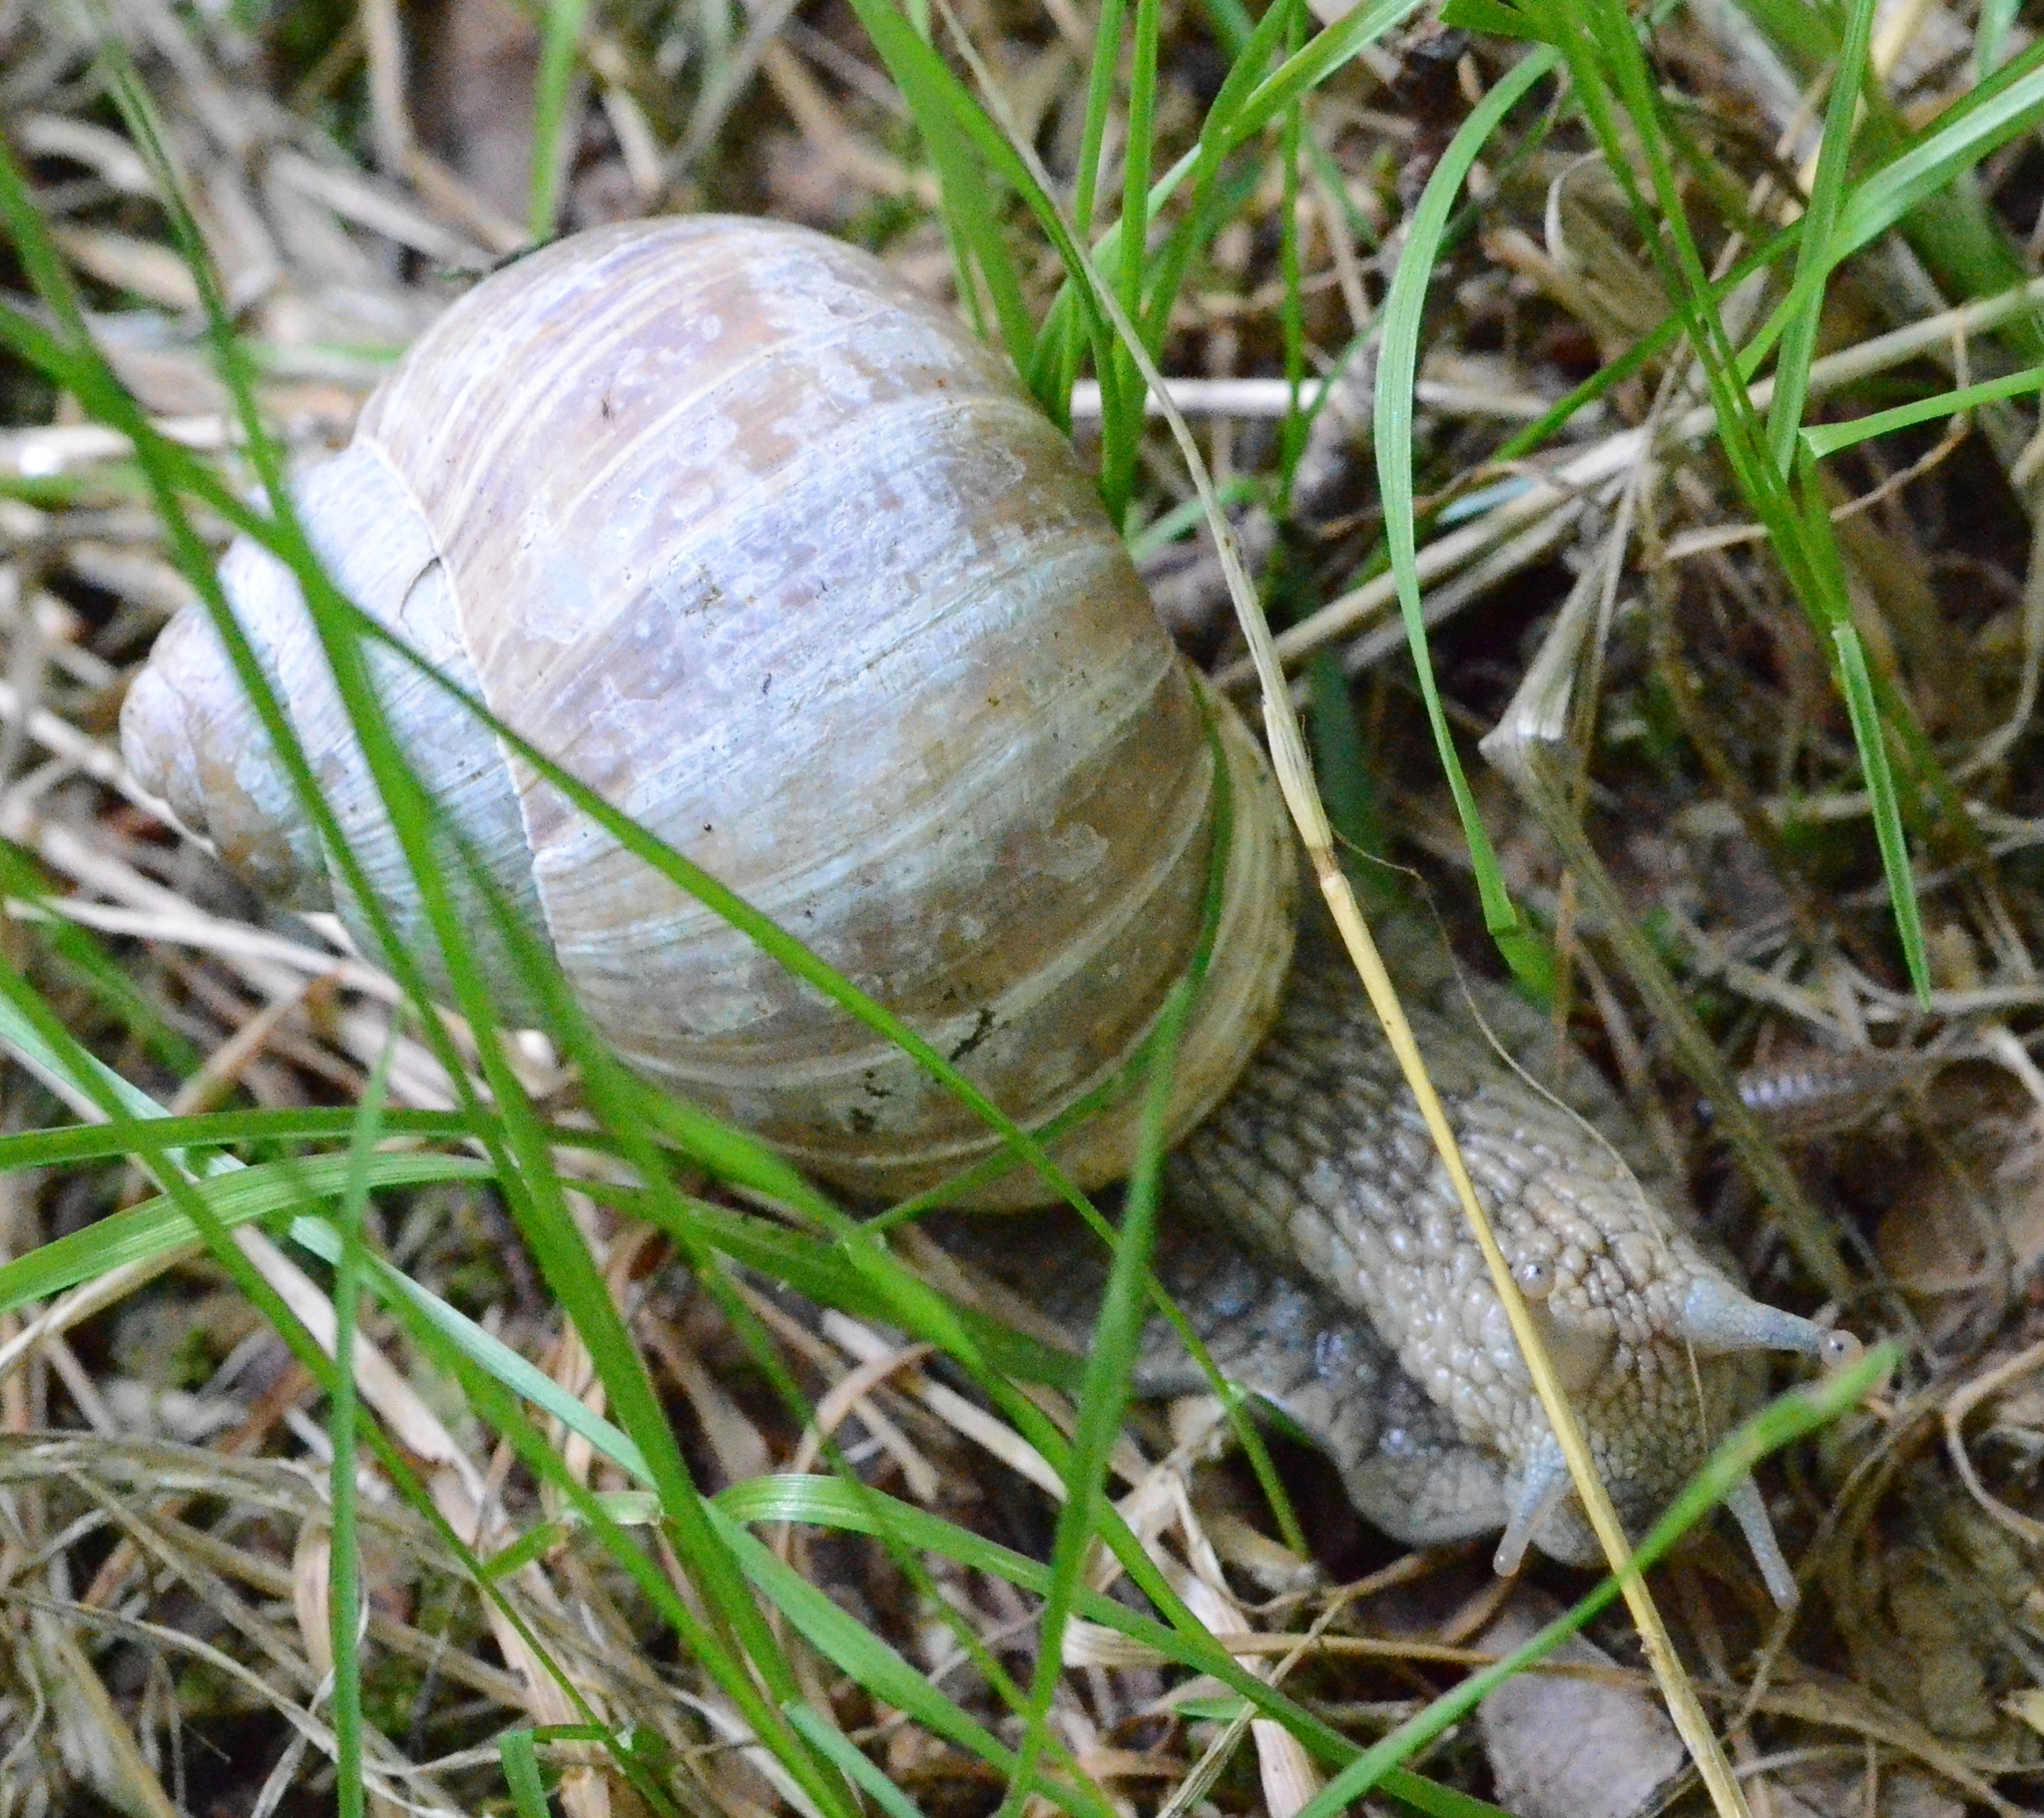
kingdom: Animalia
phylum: Mollusca
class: Gastropoda
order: Stylommatophora
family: Helicidae
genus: Helix
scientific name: Helix pomatia
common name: Roman snail
